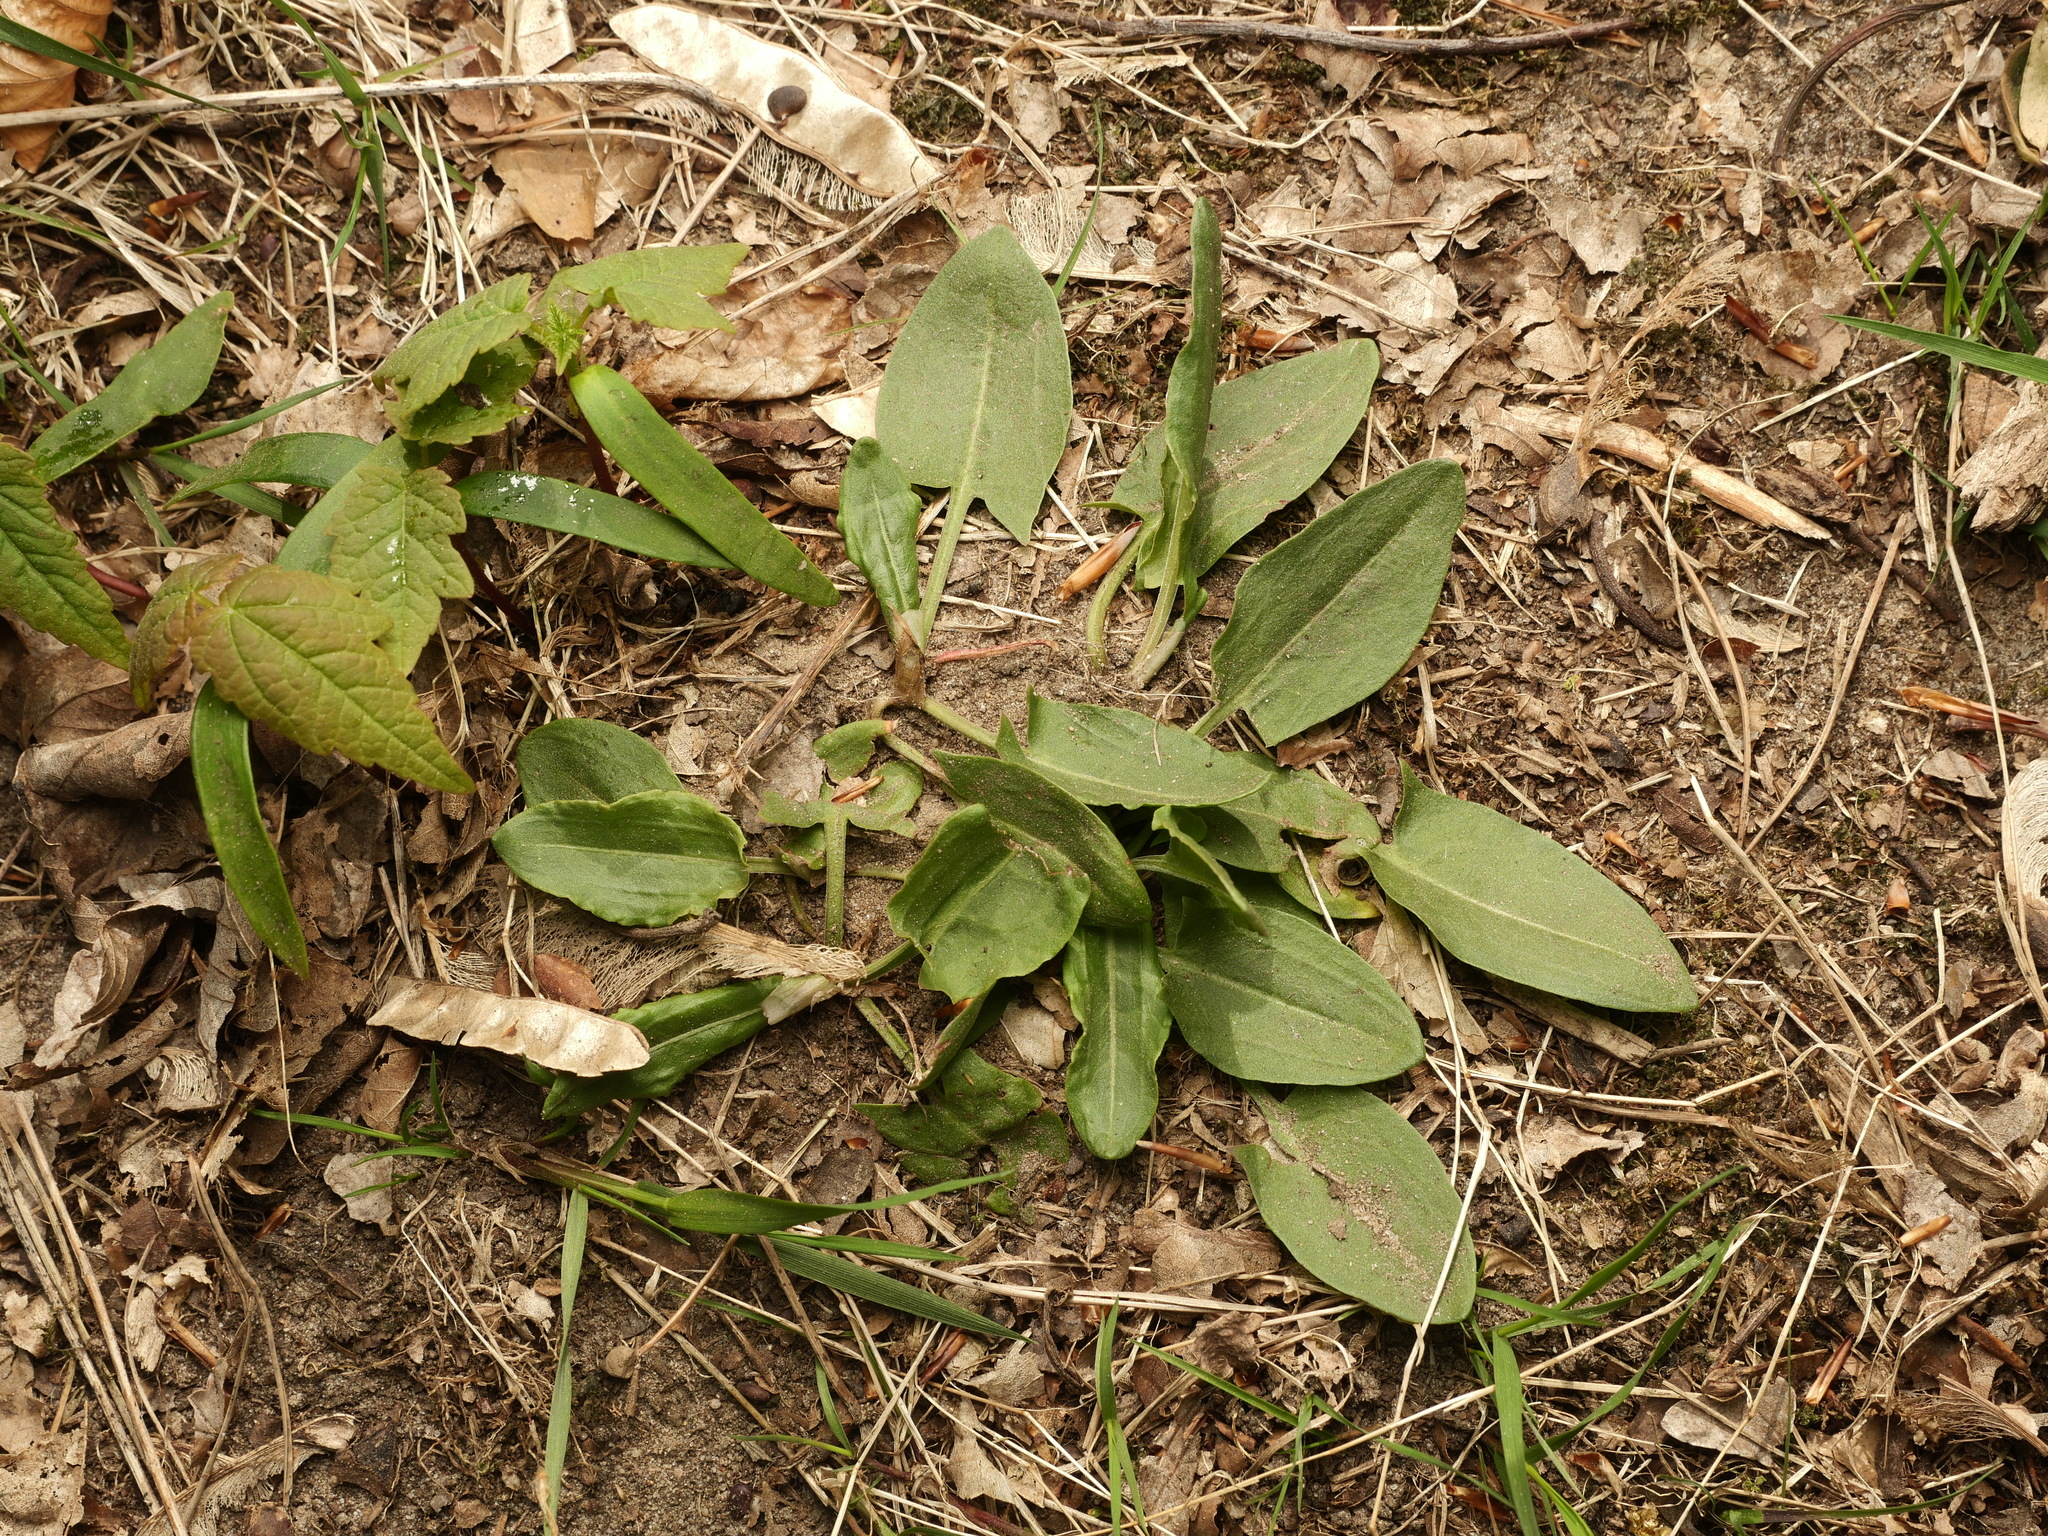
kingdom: Plantae
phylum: Tracheophyta
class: Magnoliopsida
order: Caryophyllales
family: Polygonaceae
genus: Rumex
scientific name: Rumex acetosa
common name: Garden sorrel
